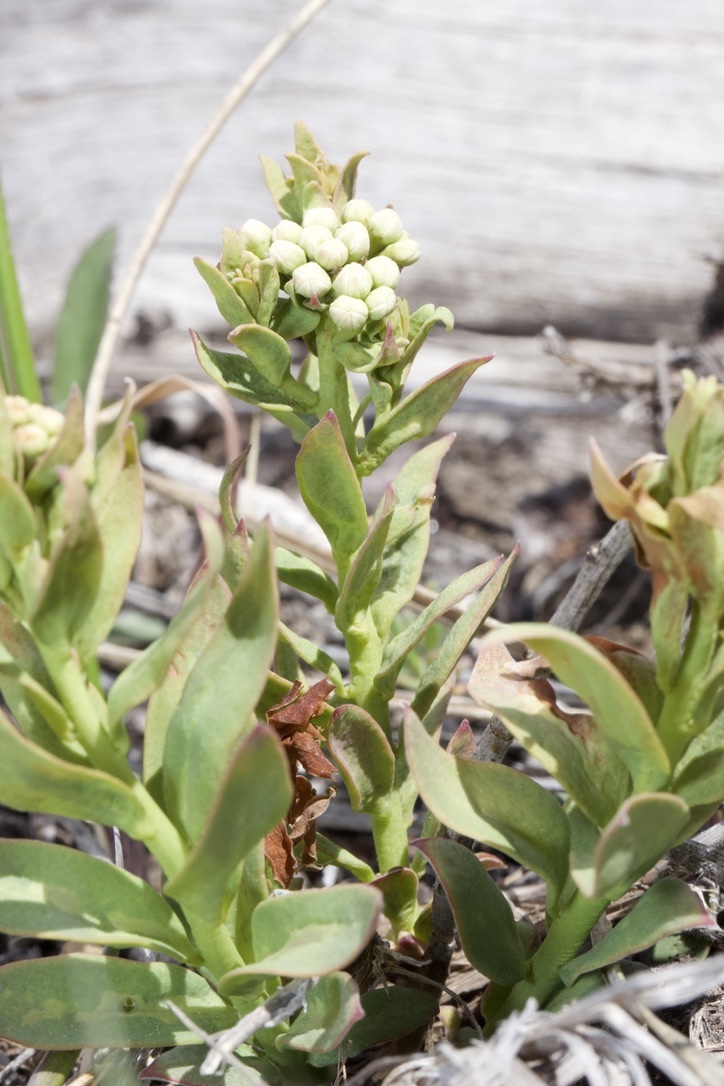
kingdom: Plantae
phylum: Tracheophyta
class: Magnoliopsida
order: Santalales
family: Comandraceae
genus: Comandra
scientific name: Comandra umbellata
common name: Bastard toadflax
